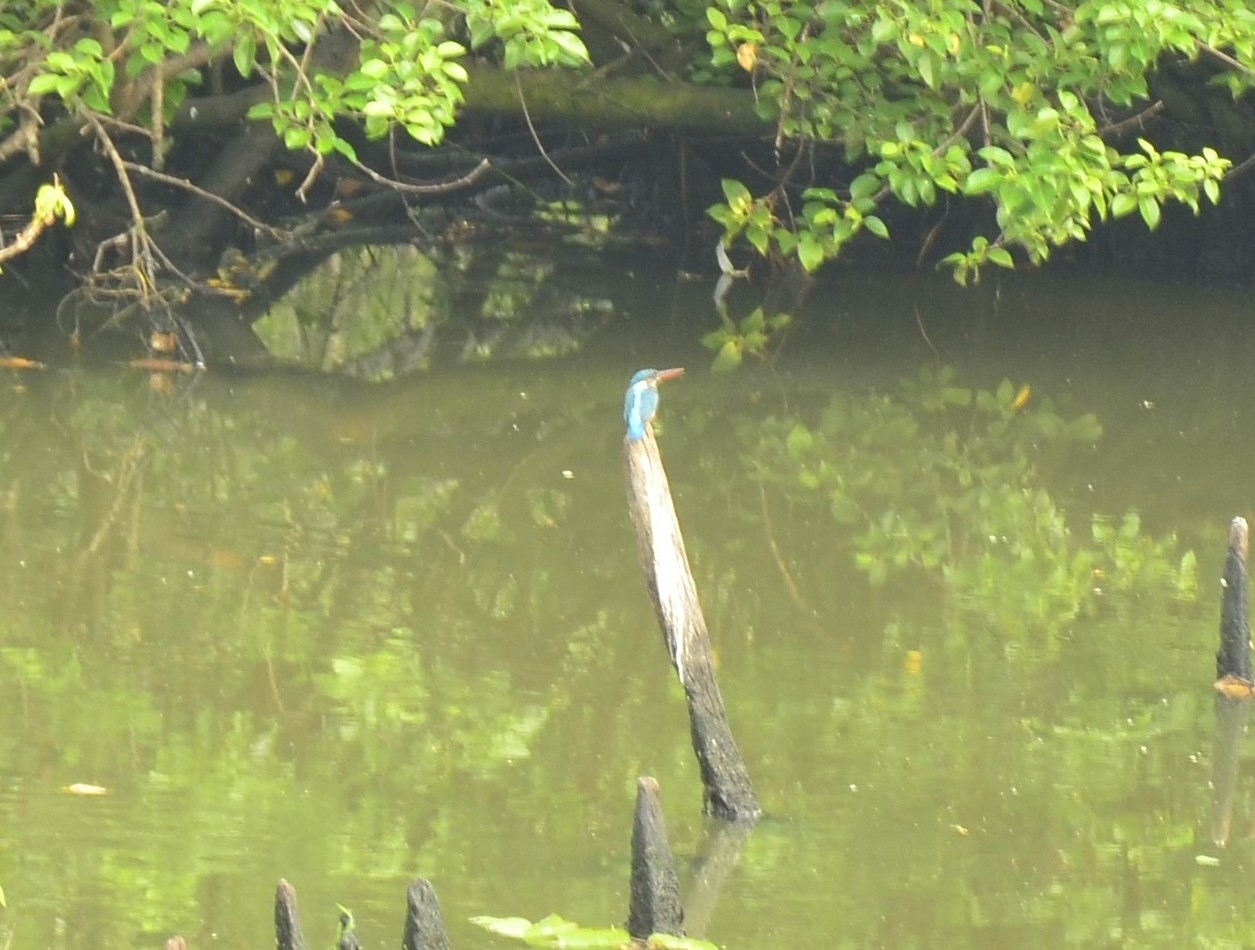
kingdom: Animalia
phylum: Chordata
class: Aves
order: Coraciiformes
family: Alcedinidae
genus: Alcedo
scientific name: Alcedo atthis
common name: Common kingfisher
